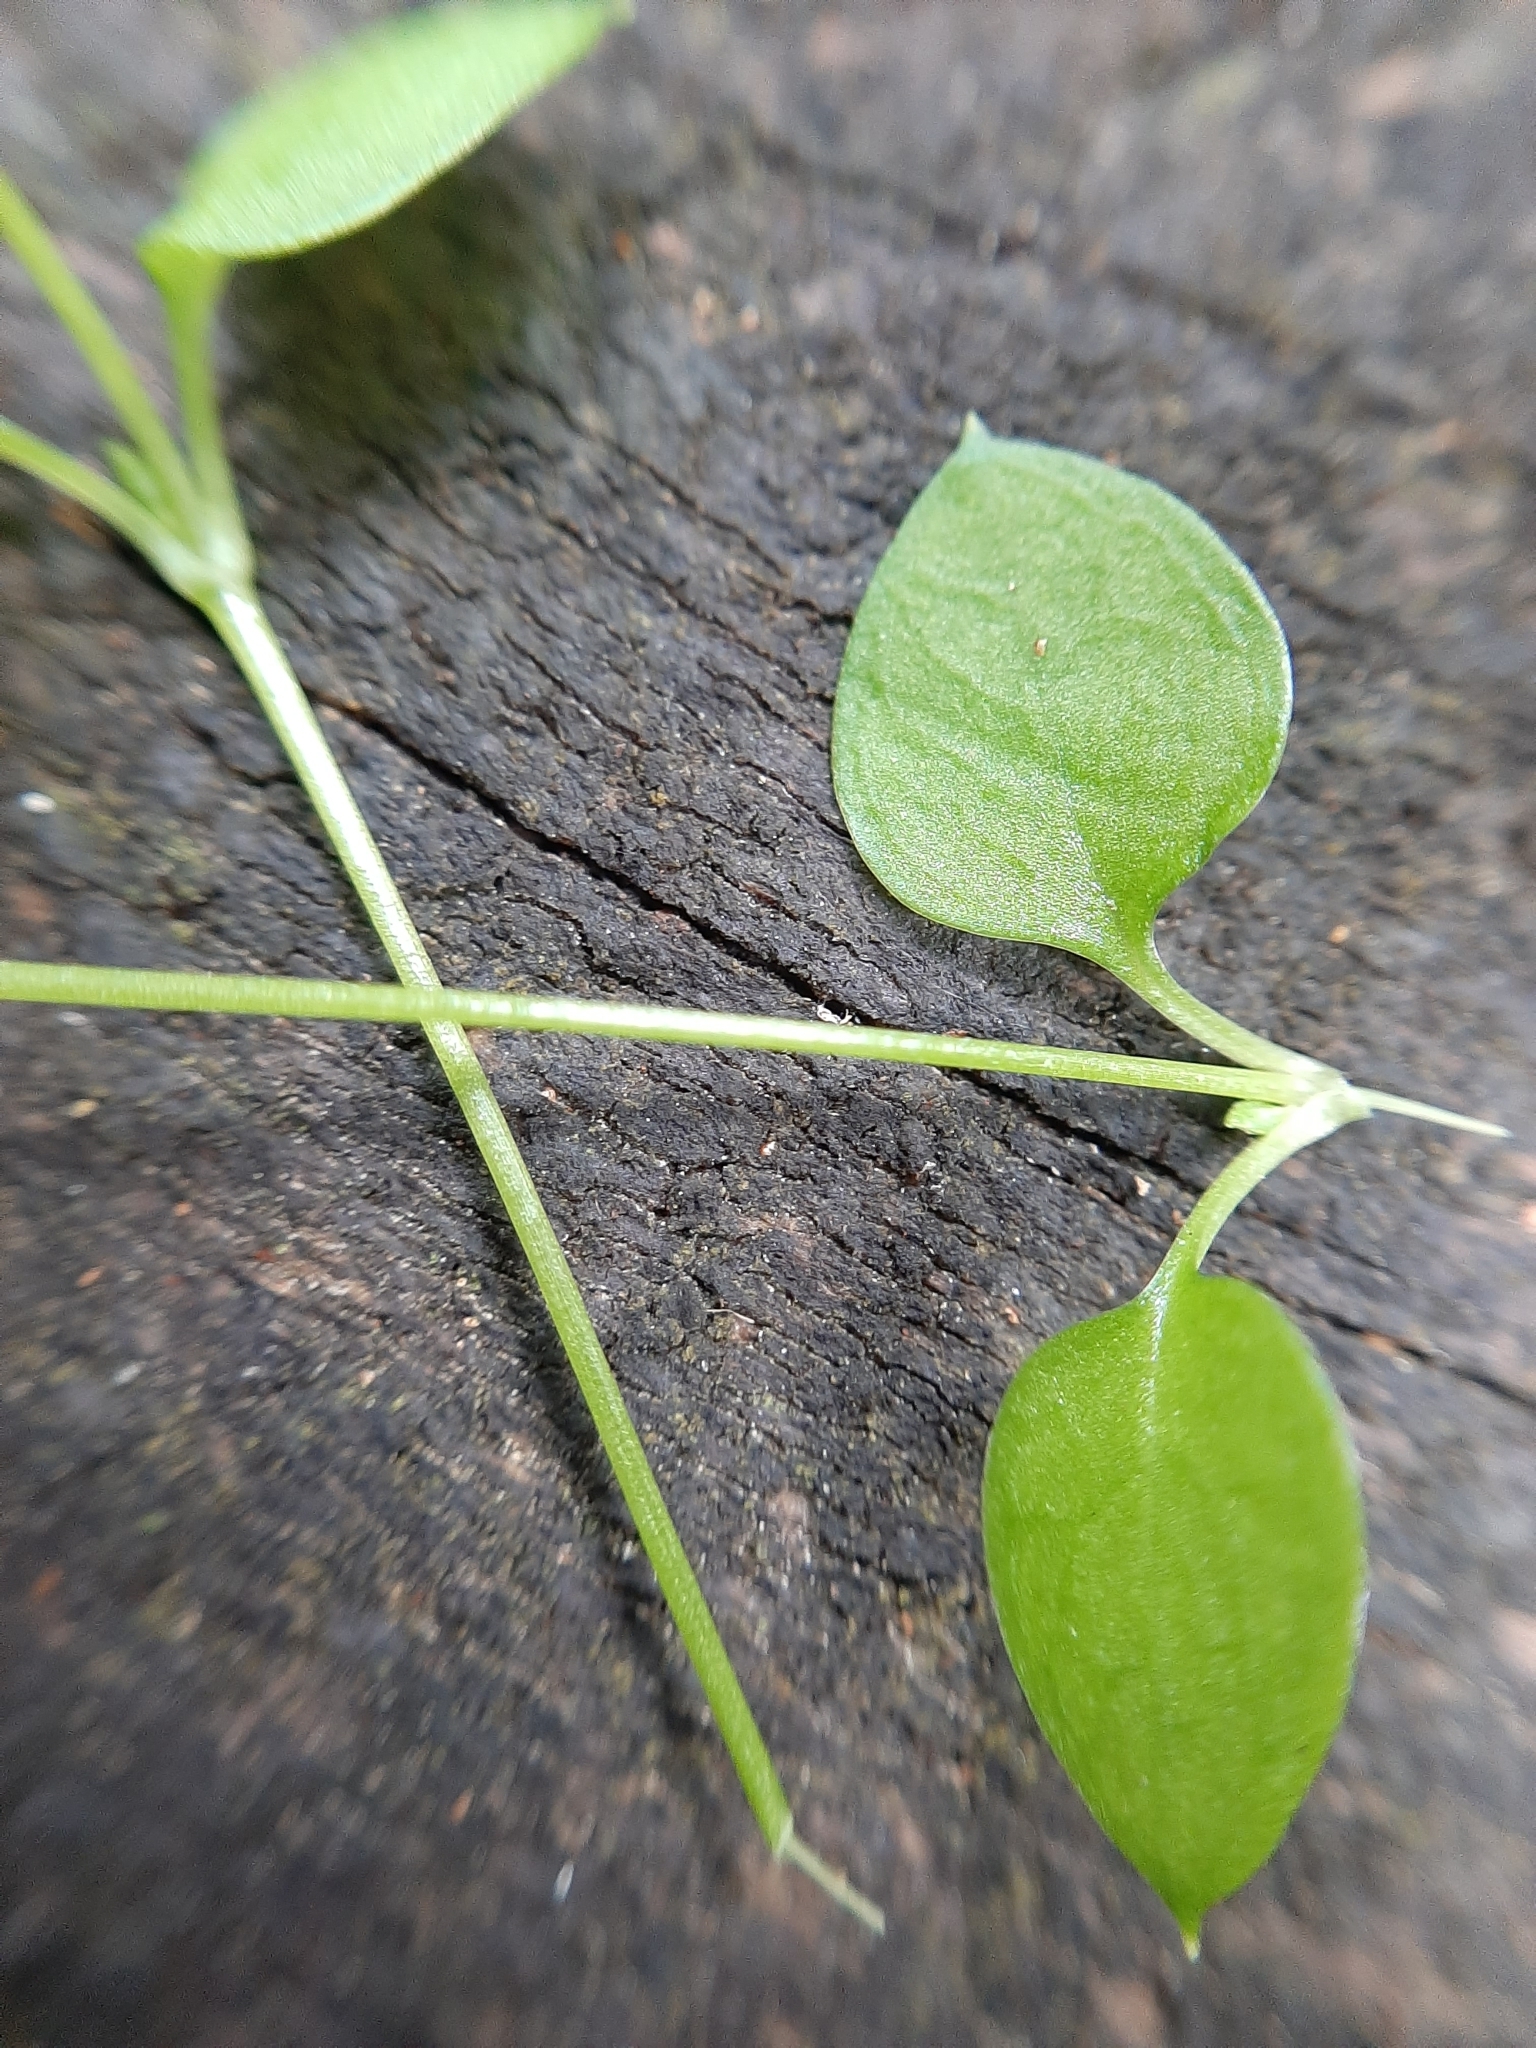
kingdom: Plantae
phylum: Tracheophyta
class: Magnoliopsida
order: Caryophyllales
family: Caryophyllaceae
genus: Stellaria
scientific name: Stellaria parviflora
